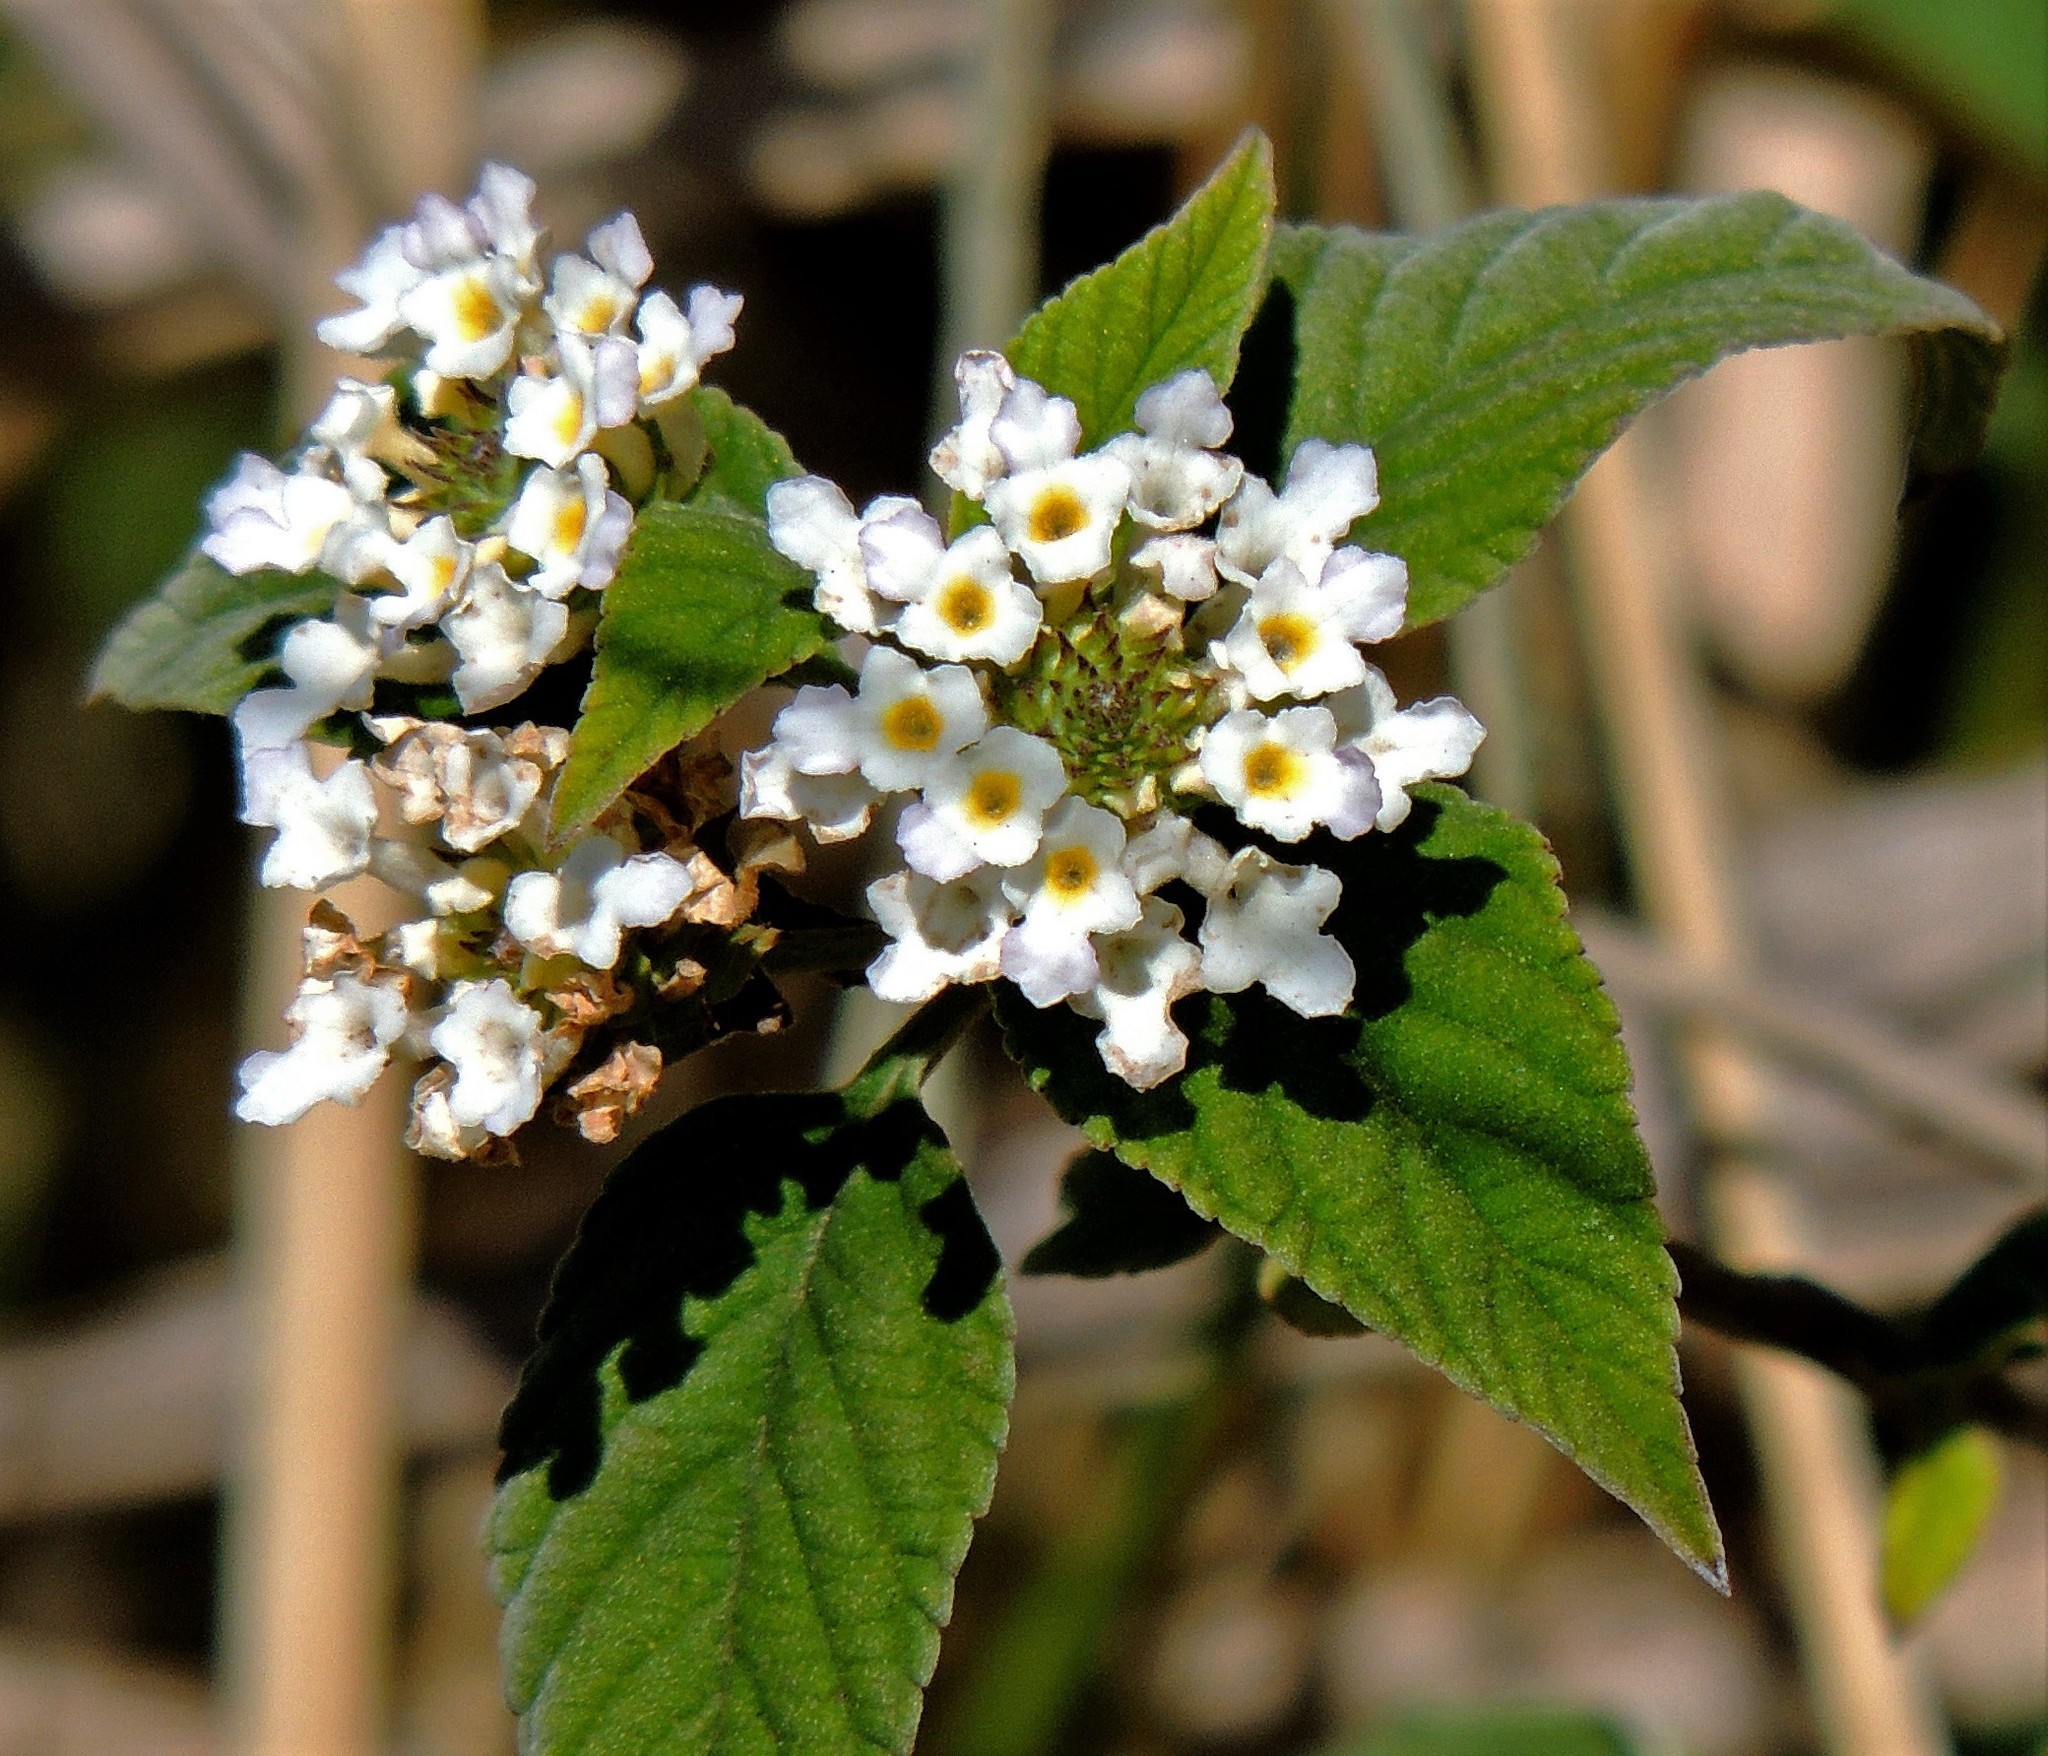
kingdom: Plantae
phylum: Tracheophyta
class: Magnoliopsida
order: Lamiales
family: Verbenaceae
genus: Lantana
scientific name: Lantana canescens
